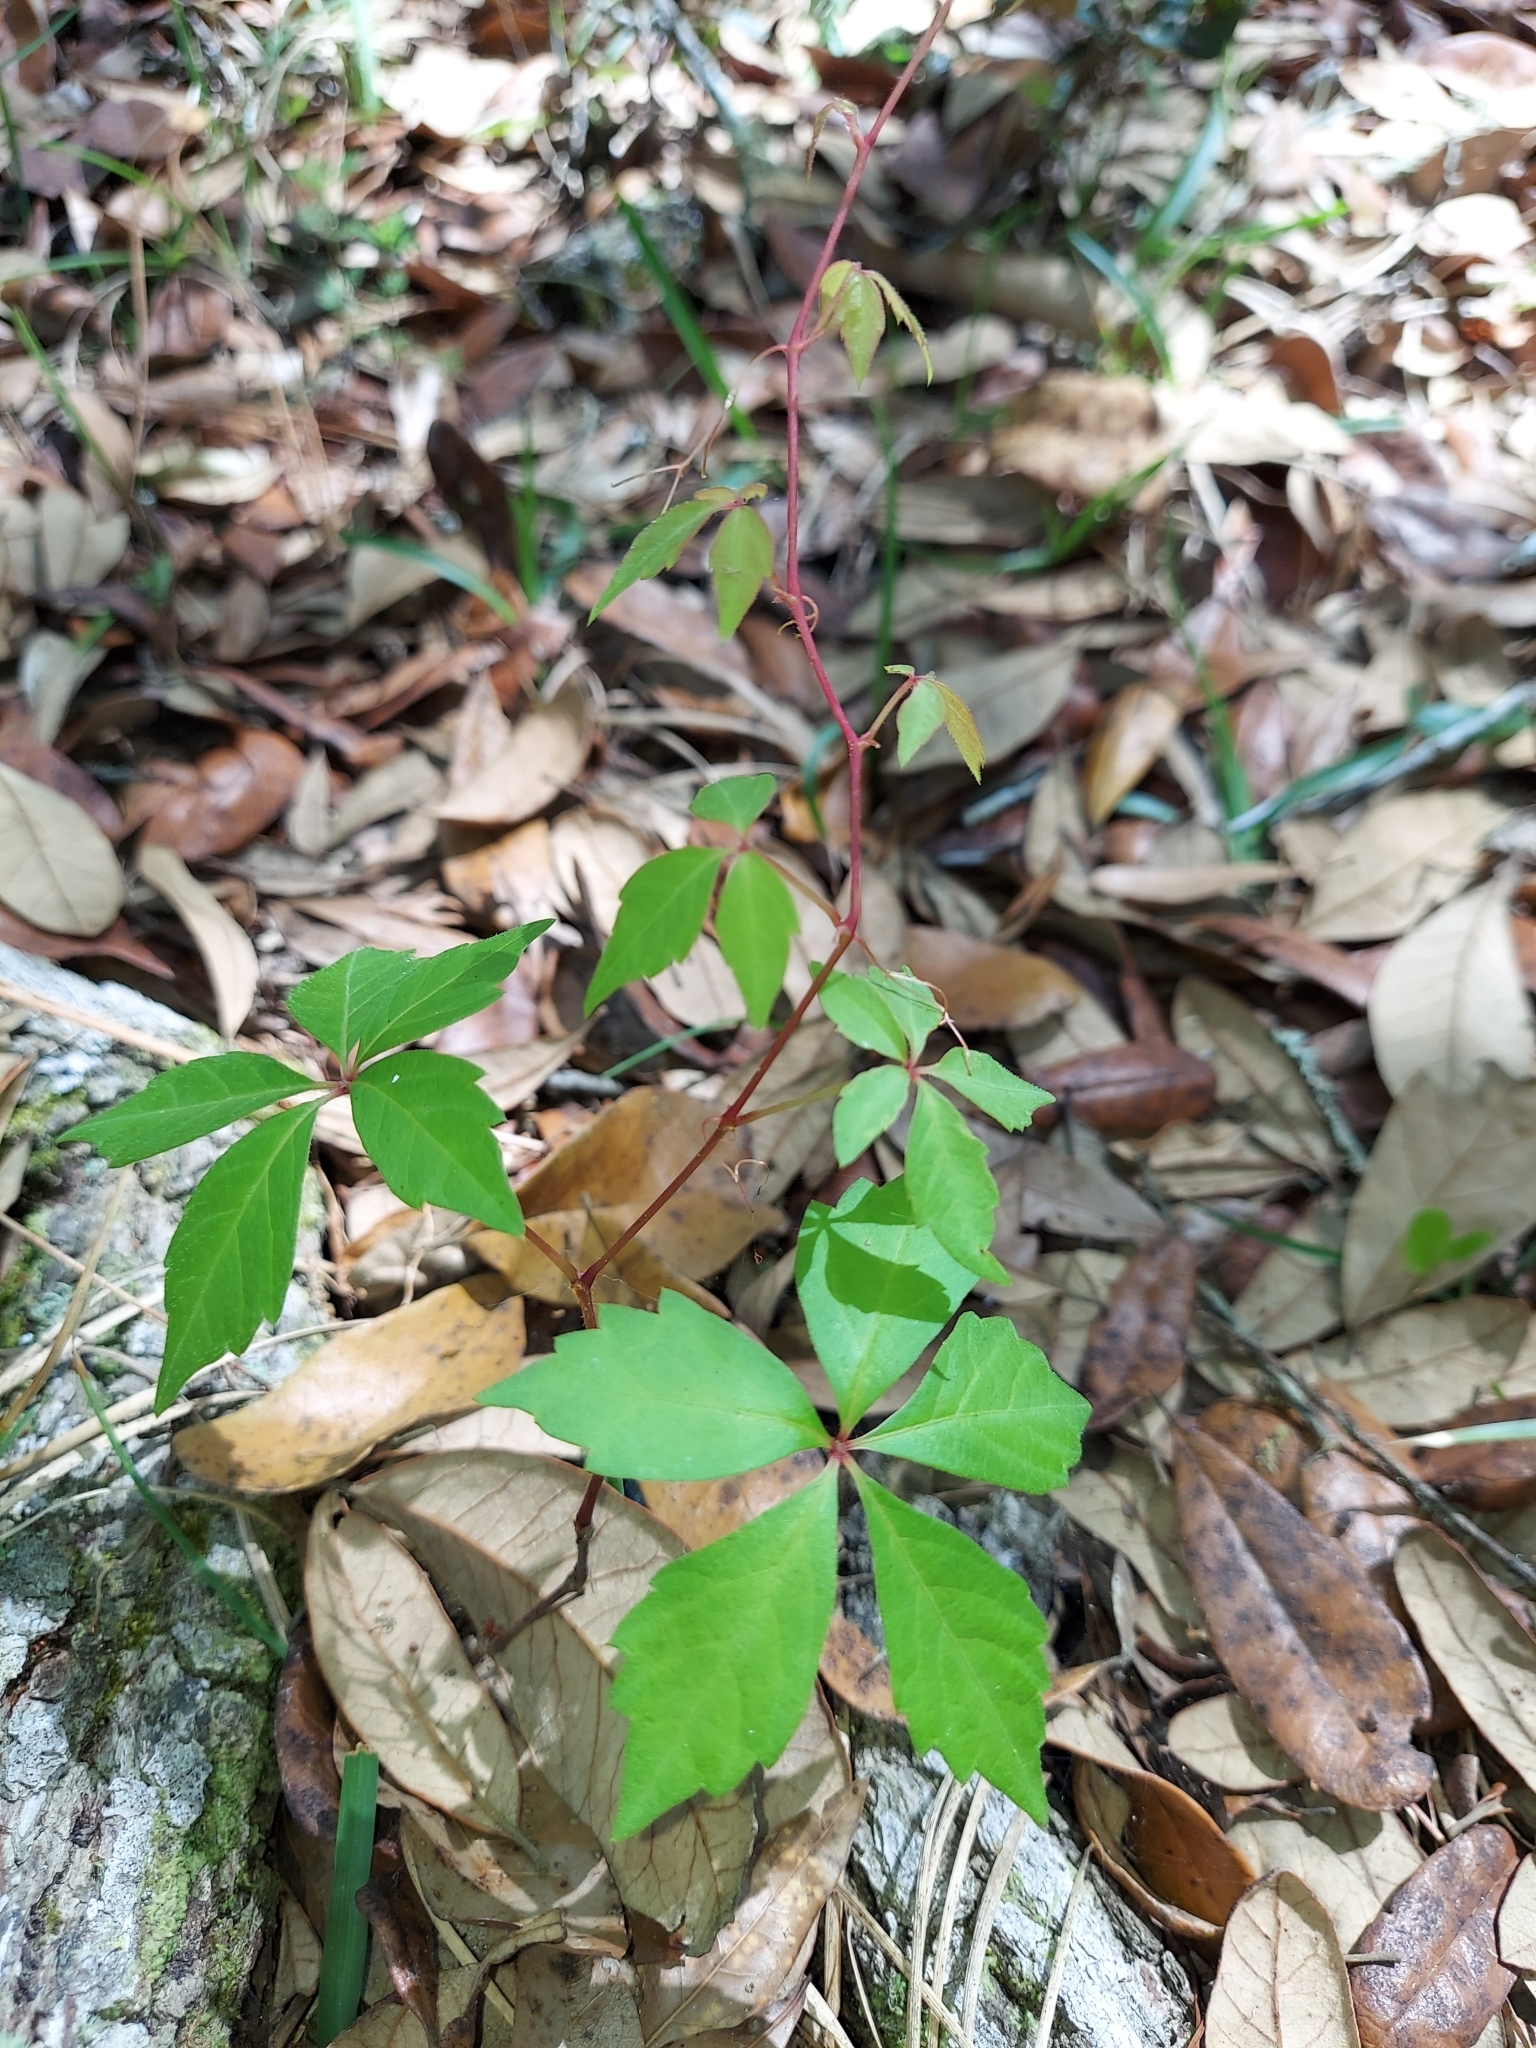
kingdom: Plantae
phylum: Tracheophyta
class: Magnoliopsida
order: Vitales
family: Vitaceae
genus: Parthenocissus
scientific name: Parthenocissus quinquefolia
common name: Virginia-creeper
